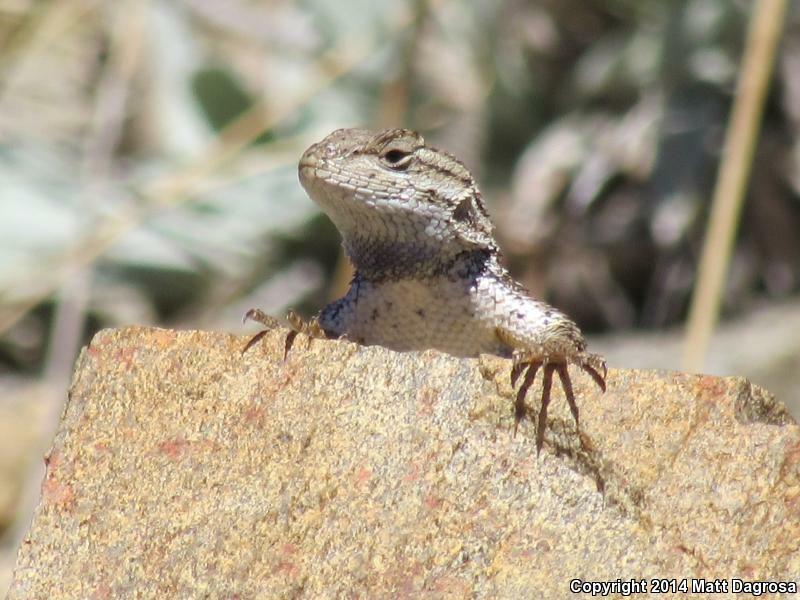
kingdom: Animalia
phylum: Chordata
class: Squamata
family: Phrynosomatidae
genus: Sceloporus
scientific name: Sceloporus occidentalis
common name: Western fence lizard
